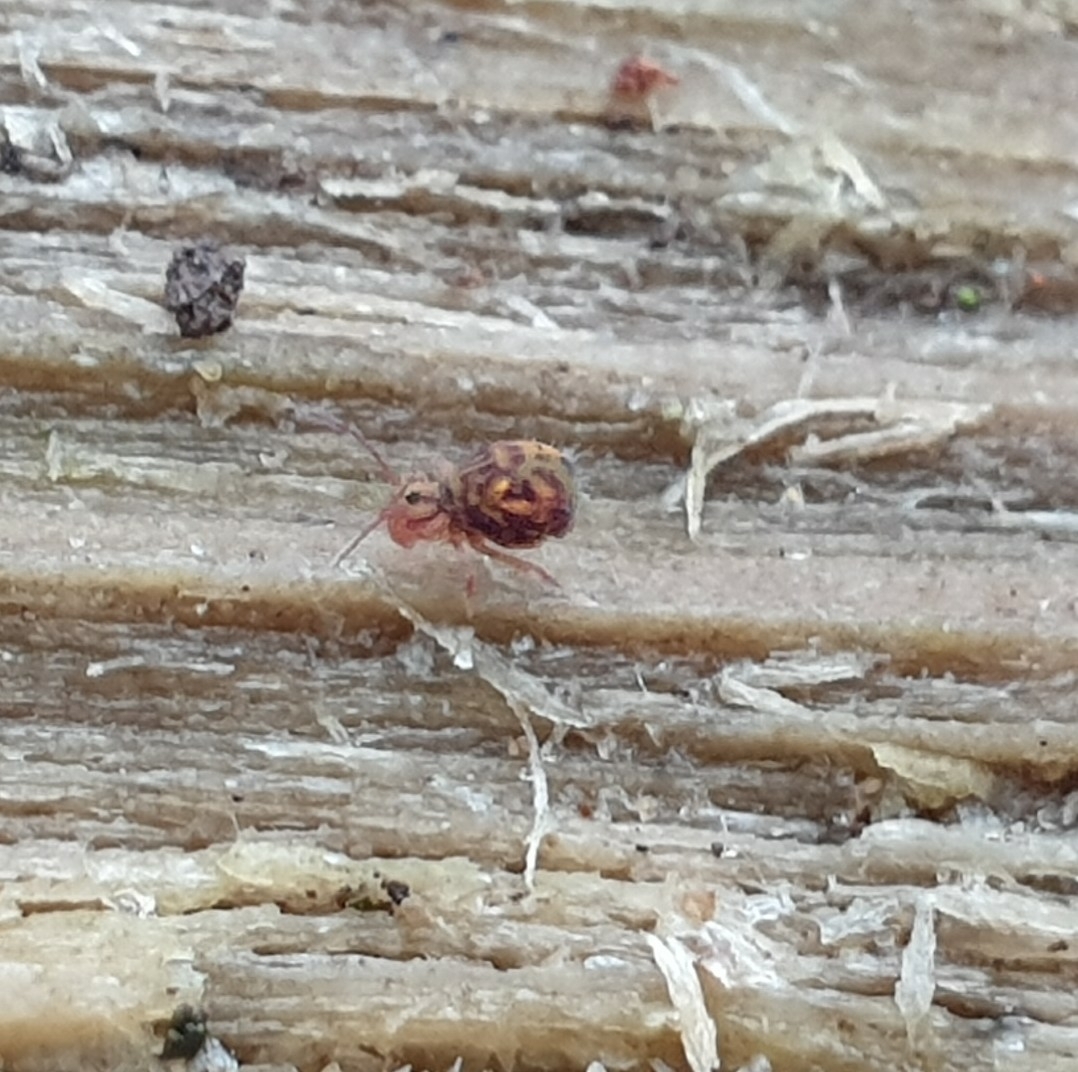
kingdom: Animalia
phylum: Arthropoda
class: Collembola
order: Symphypleona
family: Dicyrtomidae
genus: Dicyrtomina
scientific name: Dicyrtomina ornata
